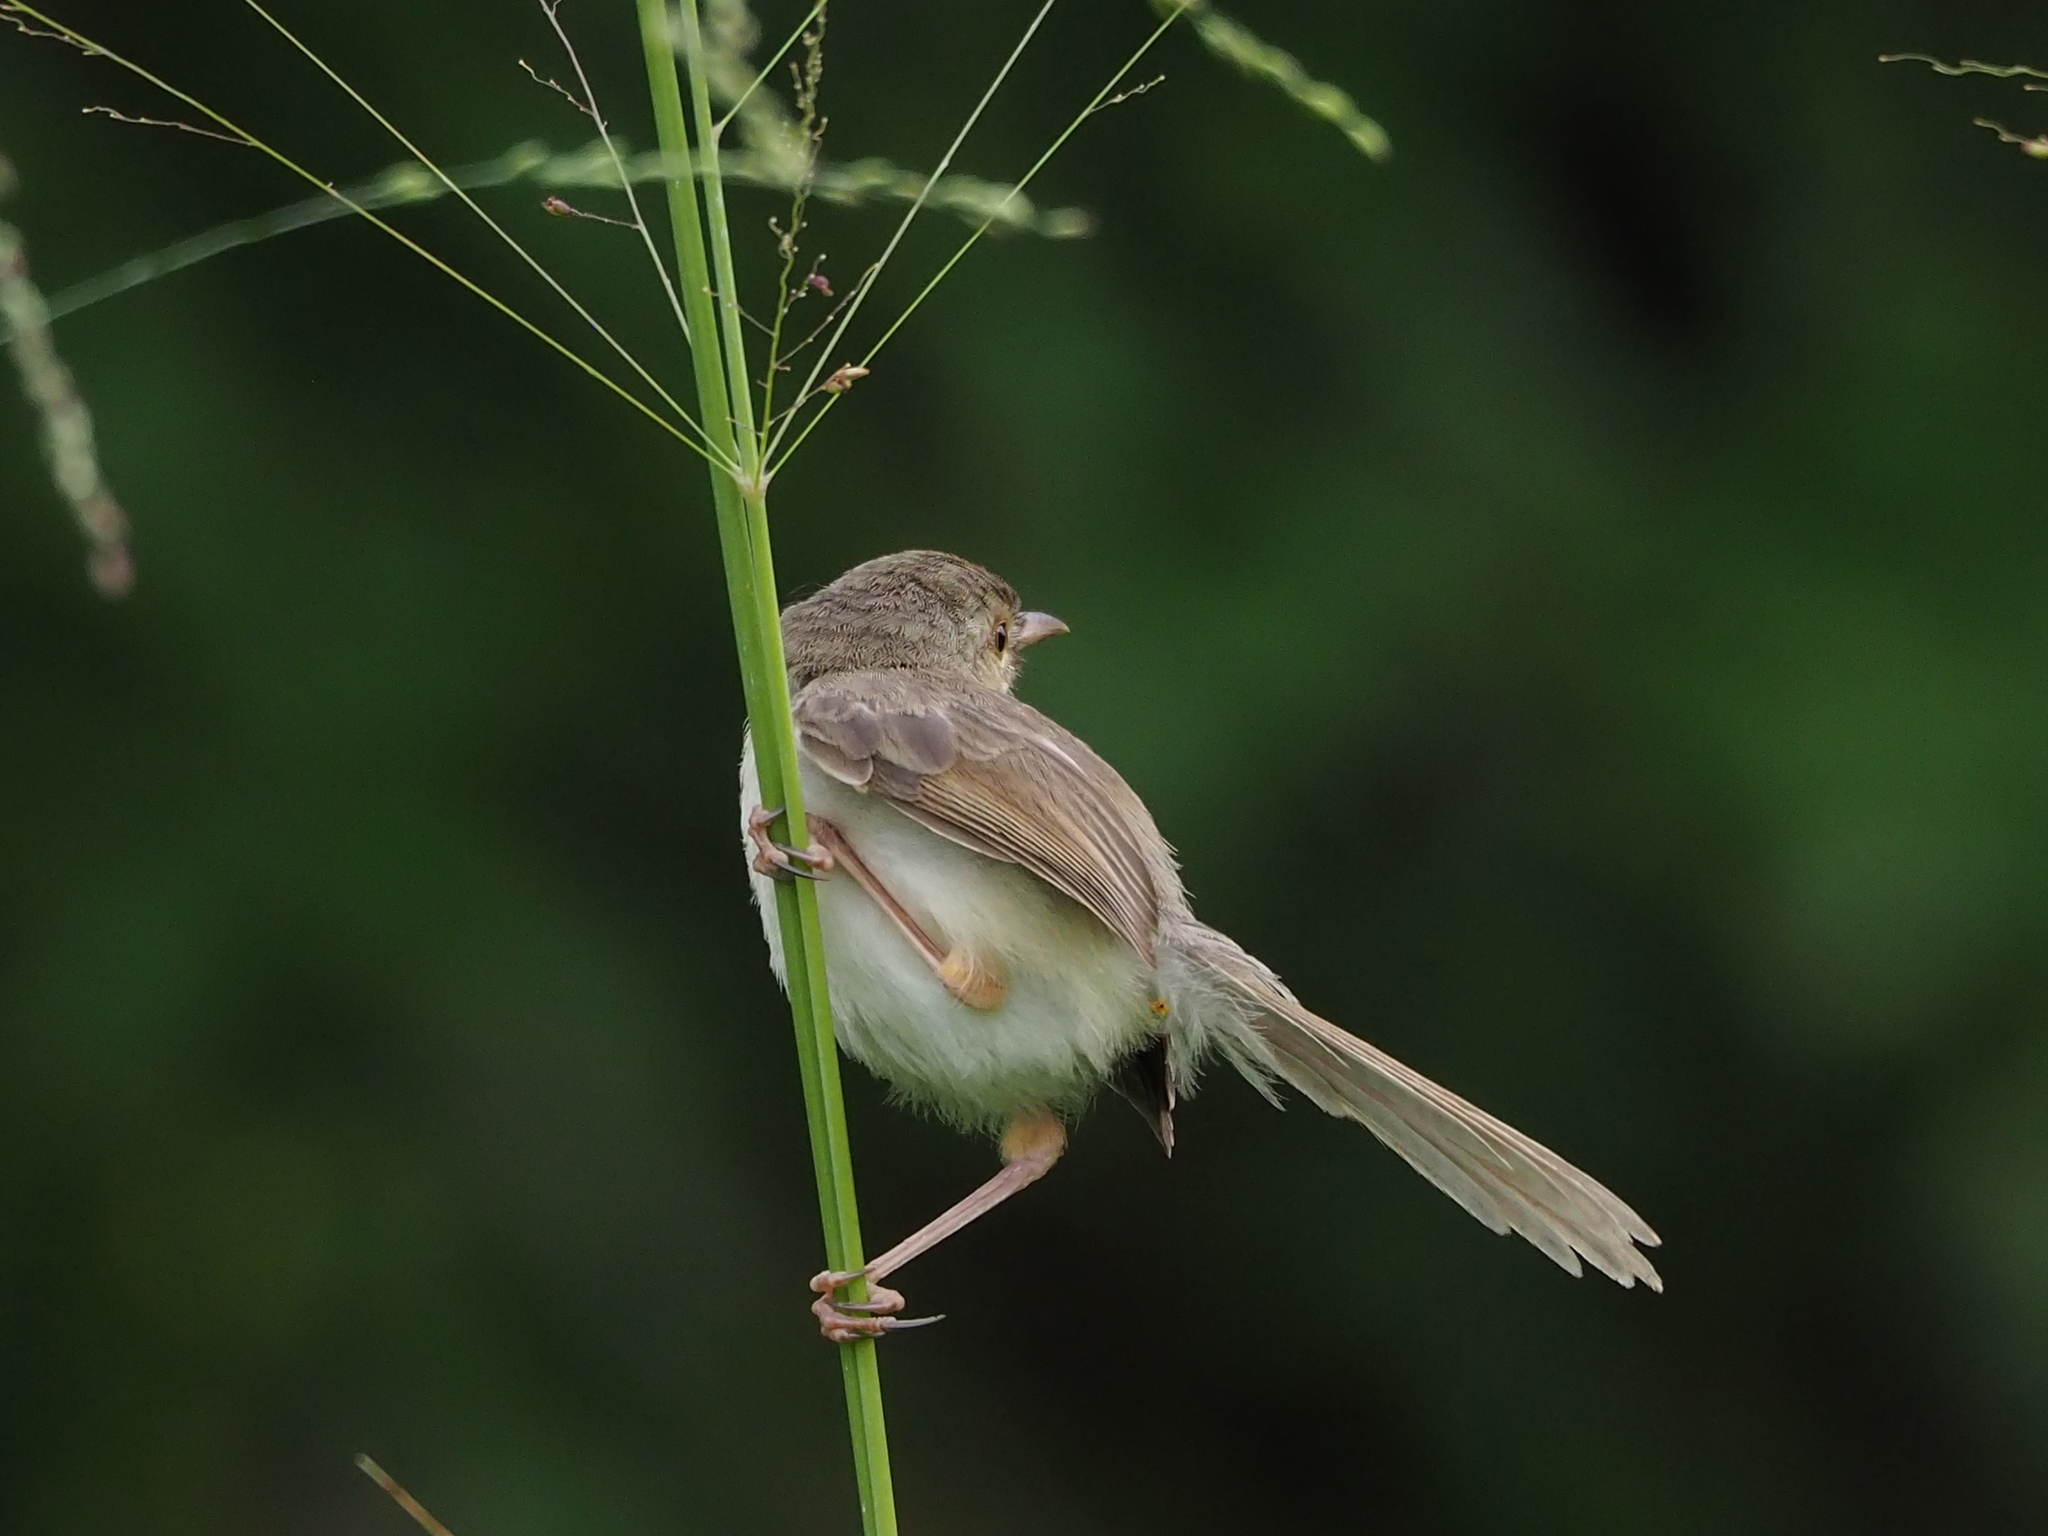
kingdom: Animalia
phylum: Chordata
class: Aves
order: Passeriformes
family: Cisticolidae
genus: Prinia
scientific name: Prinia inornata
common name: Plain prinia
